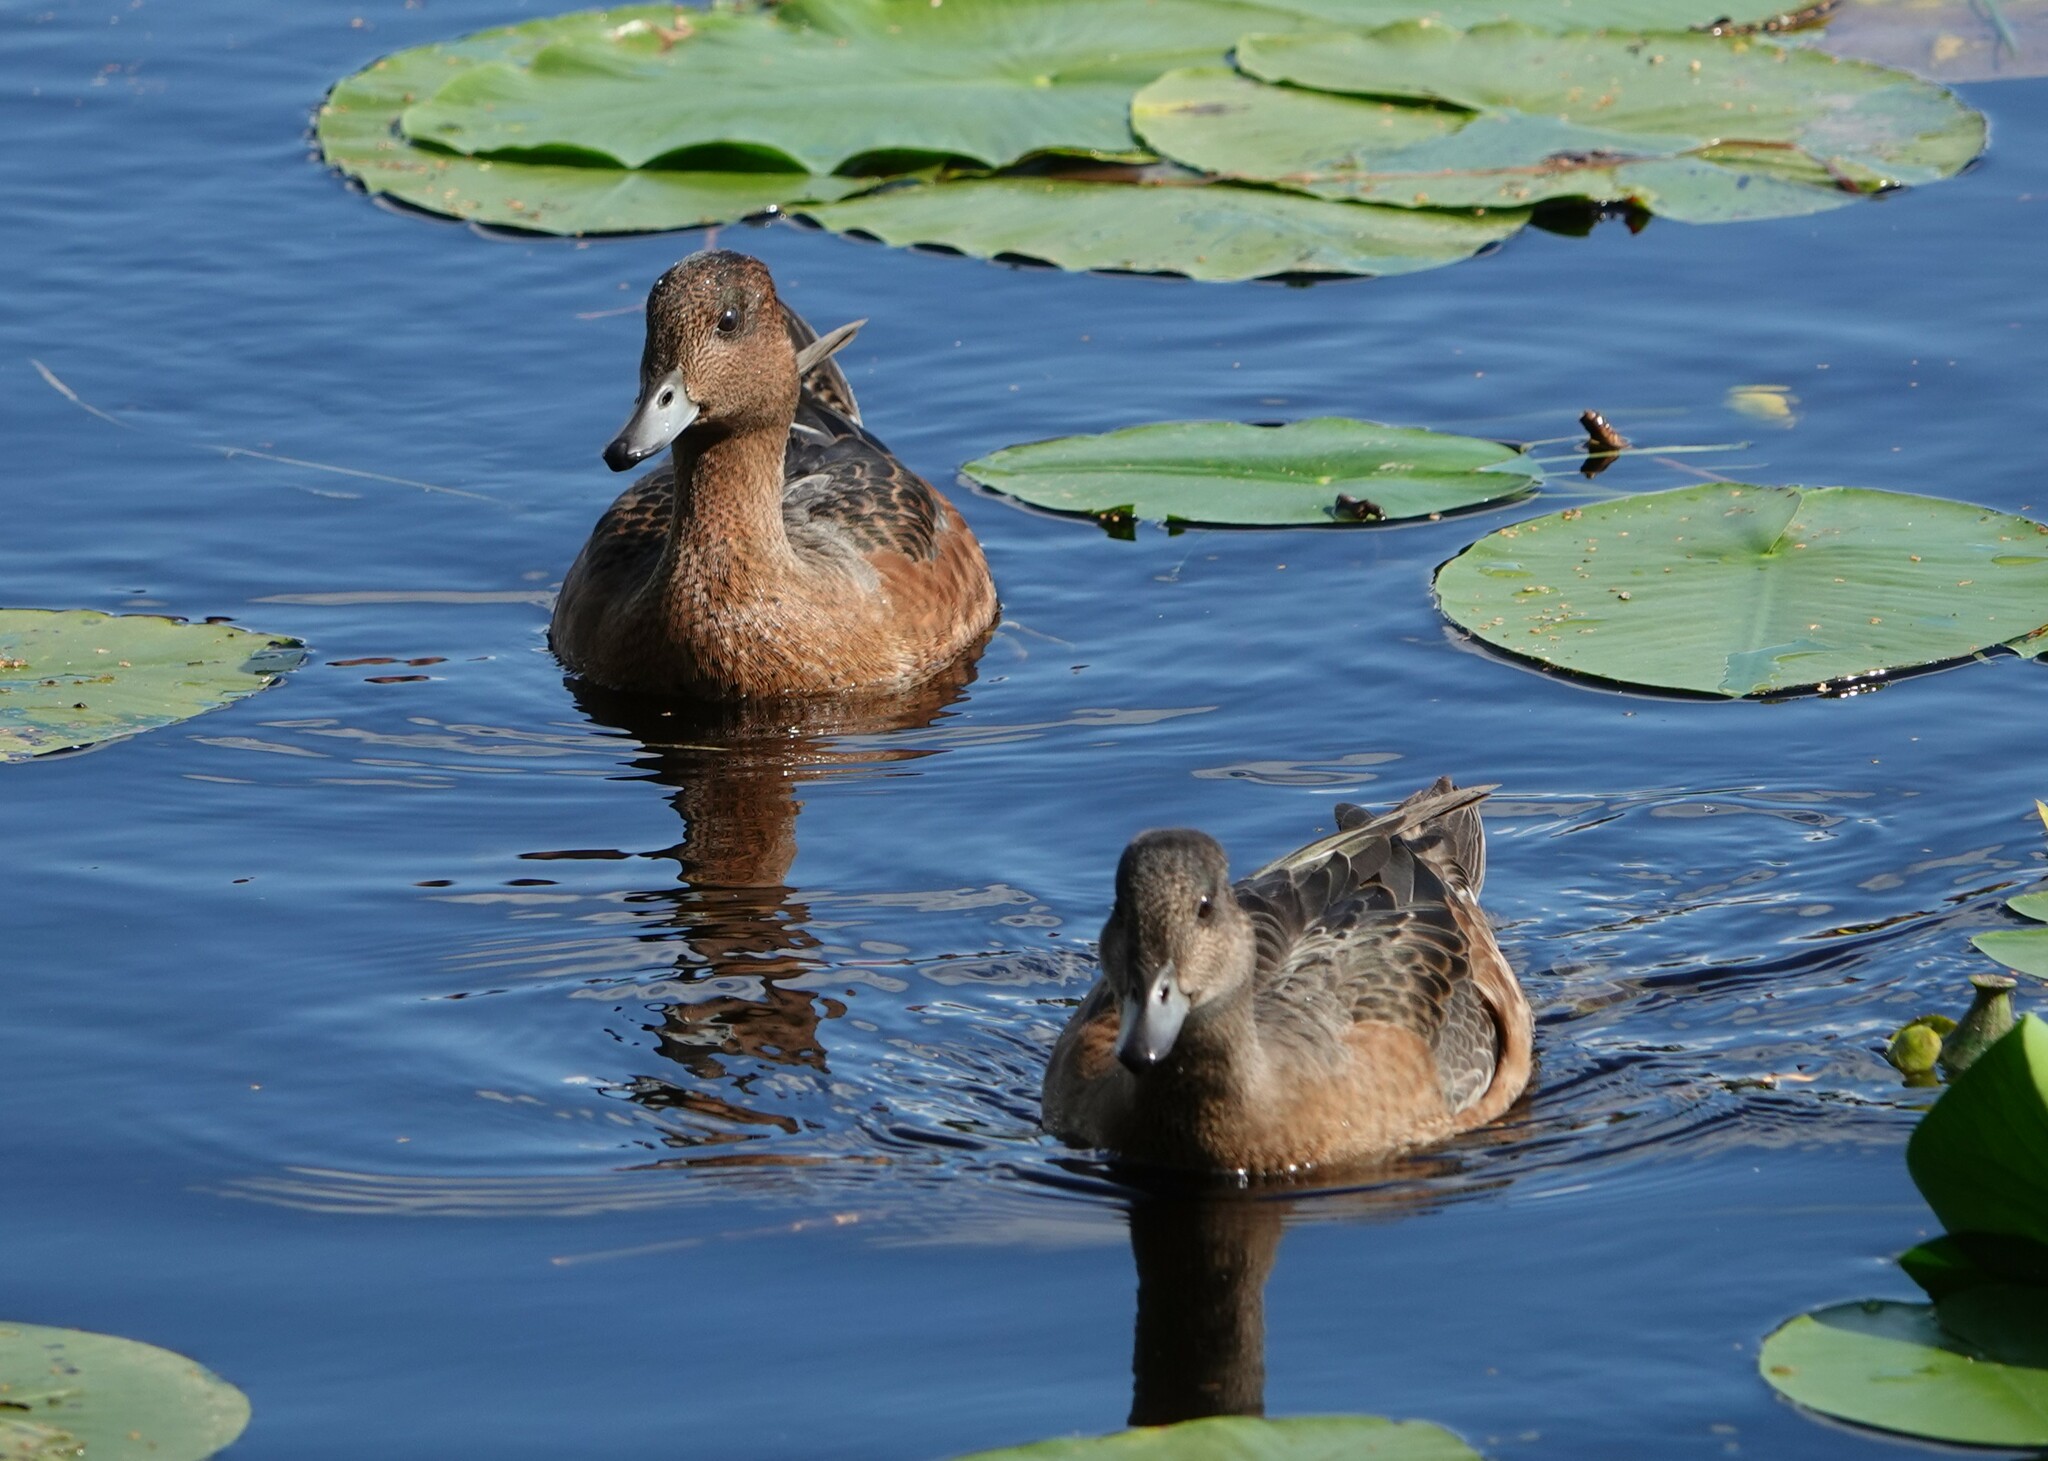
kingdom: Animalia
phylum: Chordata
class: Aves
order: Anseriformes
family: Anatidae
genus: Mareca
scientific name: Mareca penelope
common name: Eurasian wigeon
